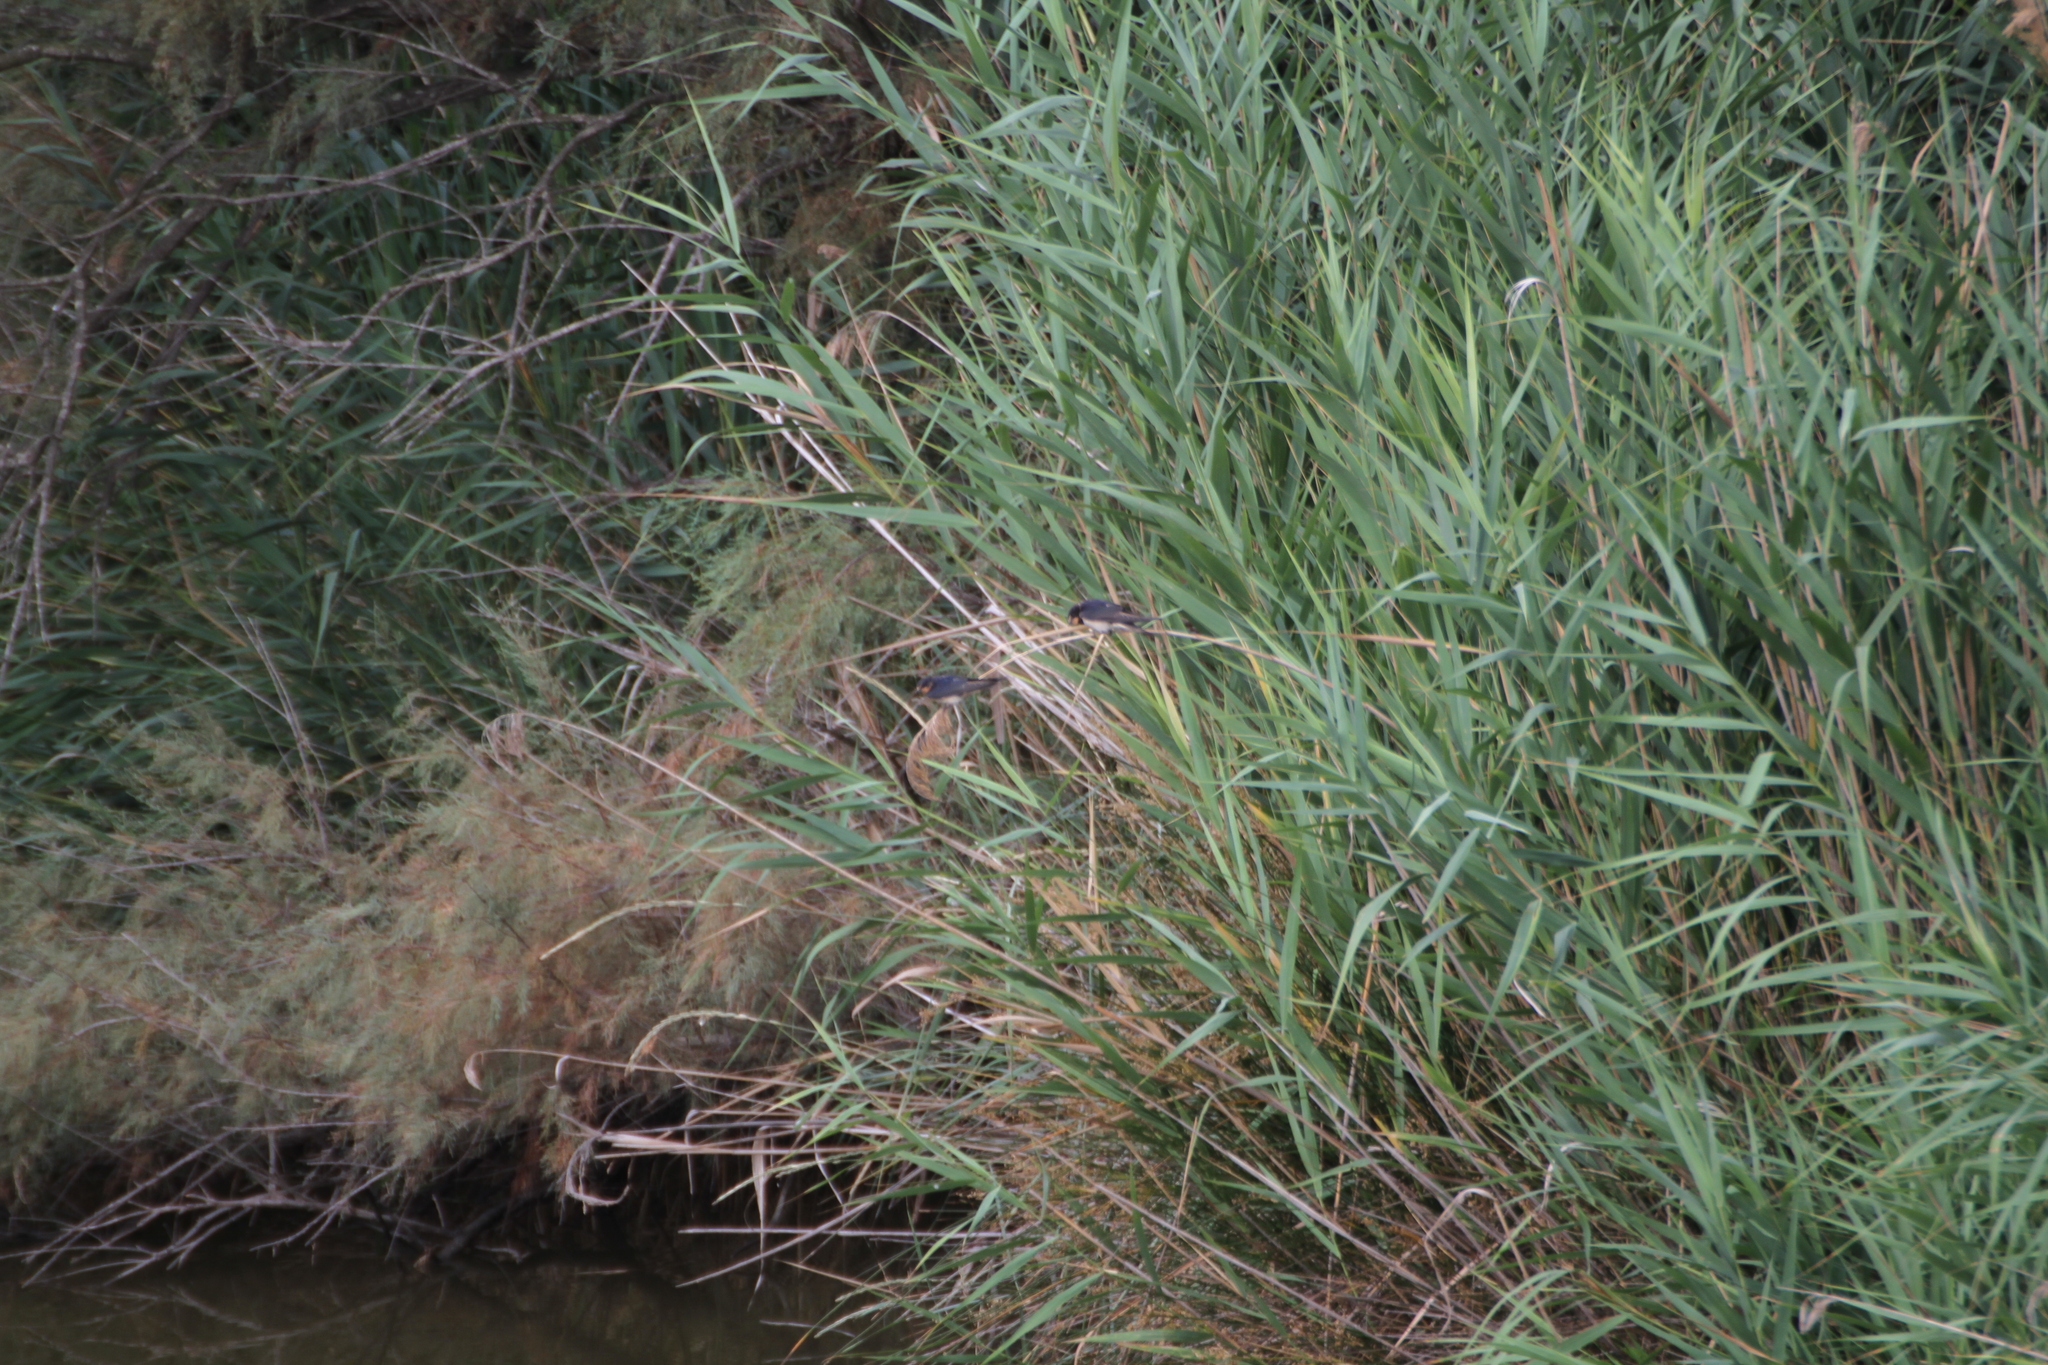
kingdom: Animalia
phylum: Chordata
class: Aves
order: Passeriformes
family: Hirundinidae
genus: Hirundo
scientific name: Hirundo rustica
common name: Barn swallow
